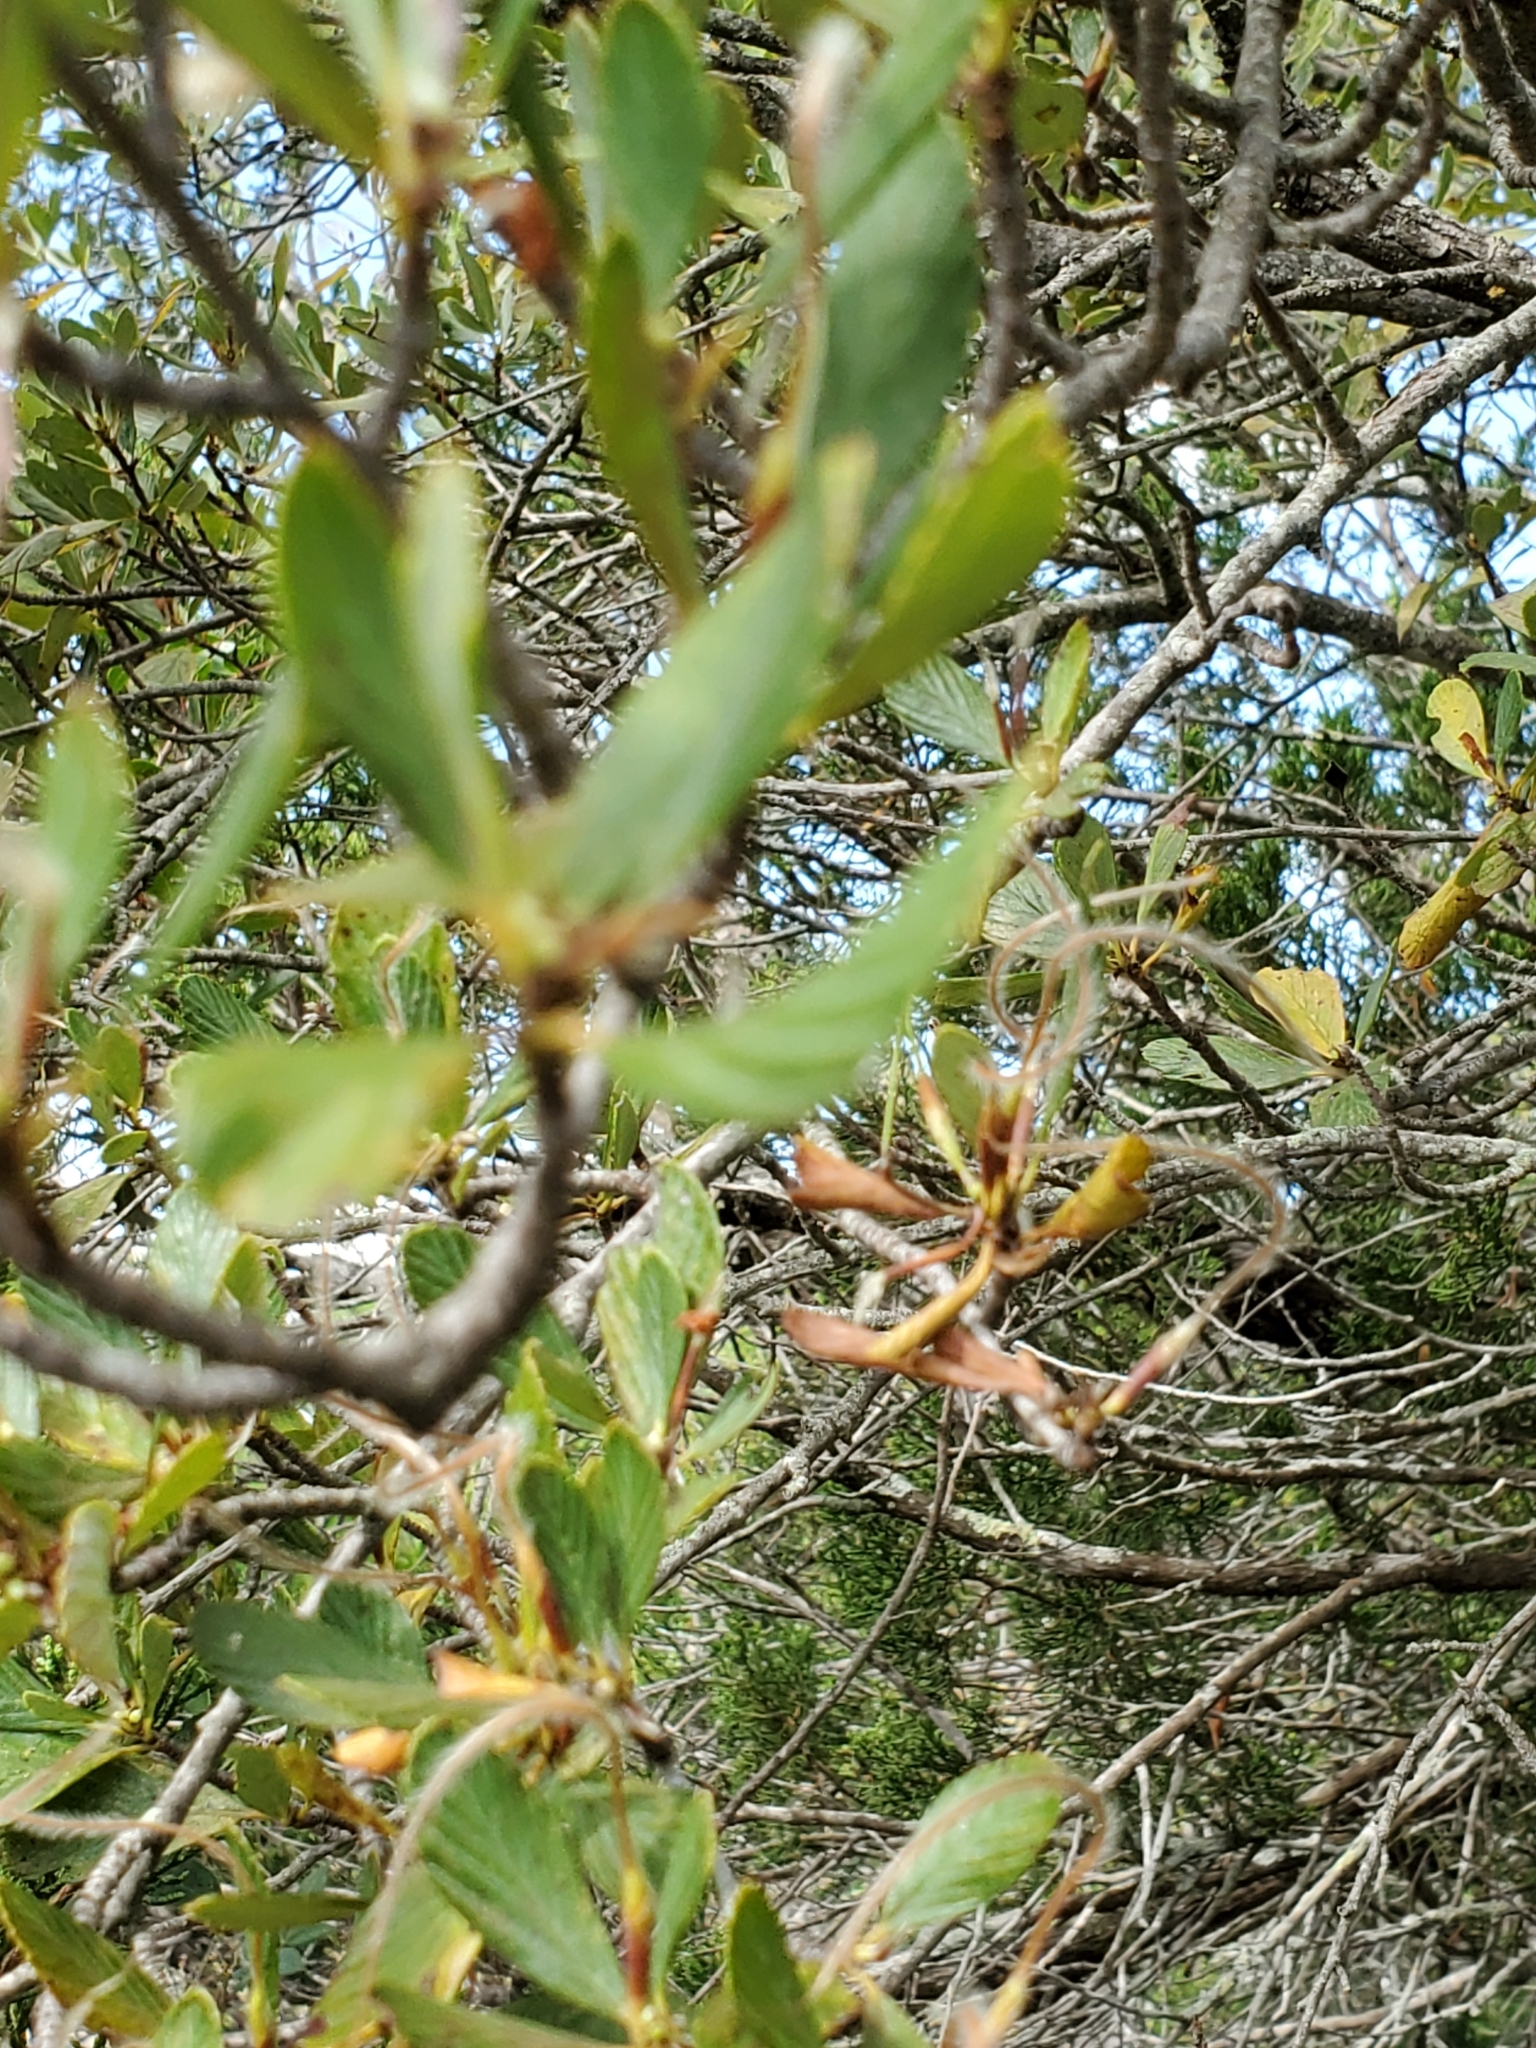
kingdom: Plantae
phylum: Tracheophyta
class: Magnoliopsida
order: Rosales
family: Rosaceae
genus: Cercocarpus
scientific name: Cercocarpus montanus
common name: Alder-leaf cercocarpus
